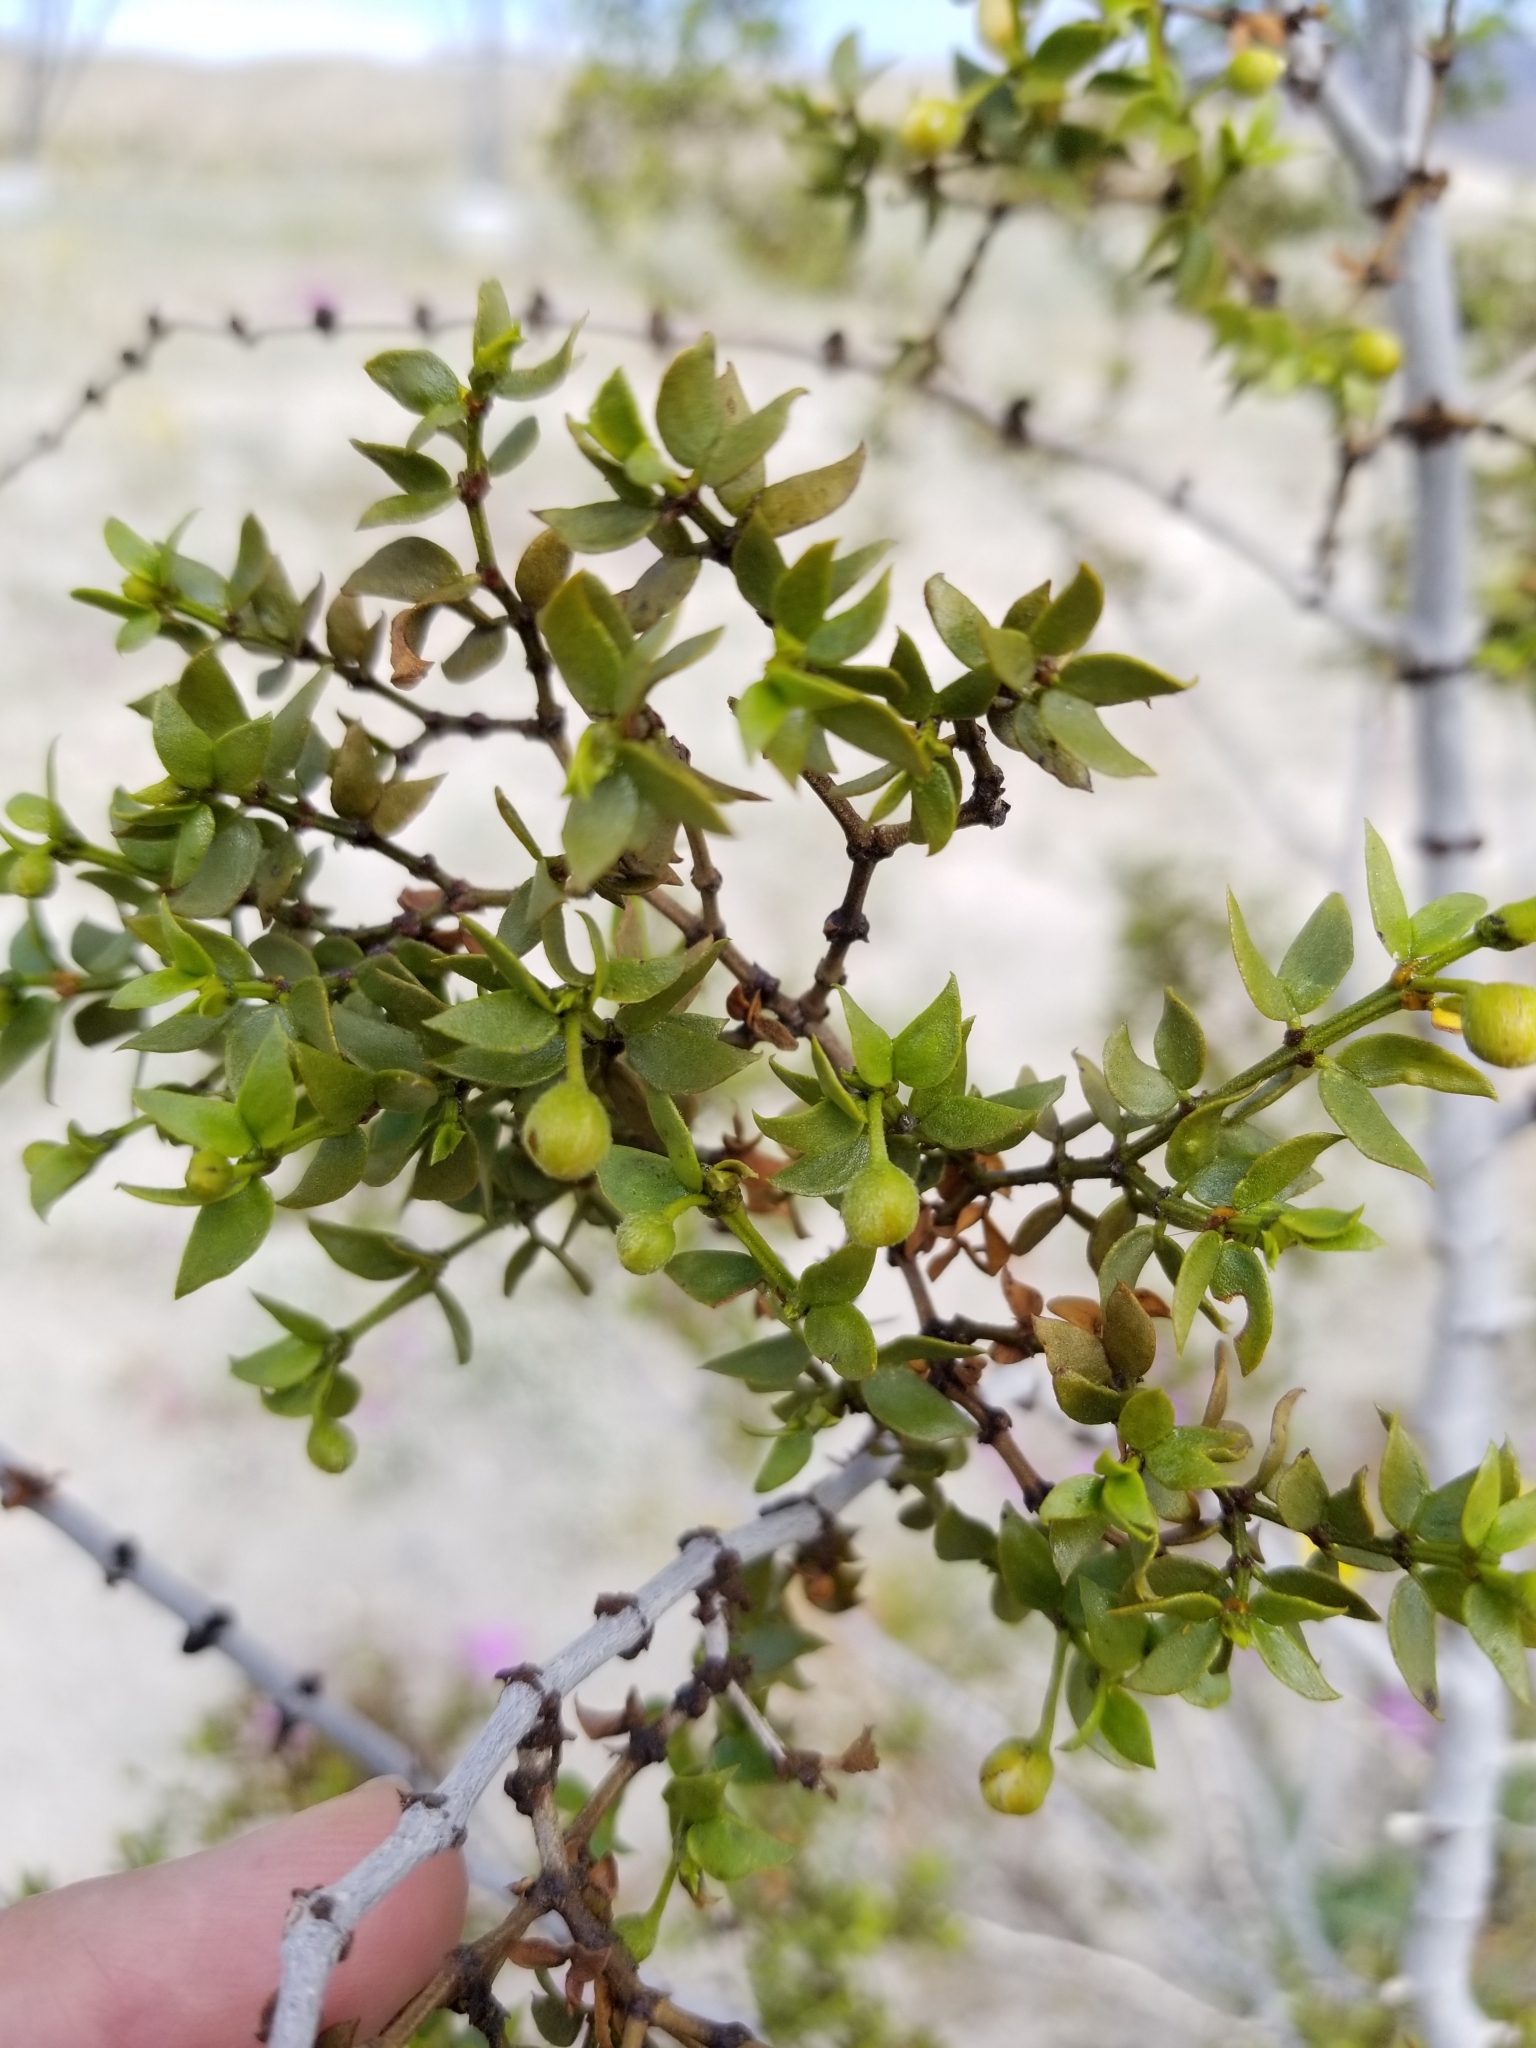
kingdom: Plantae
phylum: Tracheophyta
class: Magnoliopsida
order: Zygophyllales
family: Zygophyllaceae
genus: Larrea
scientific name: Larrea tridentata
